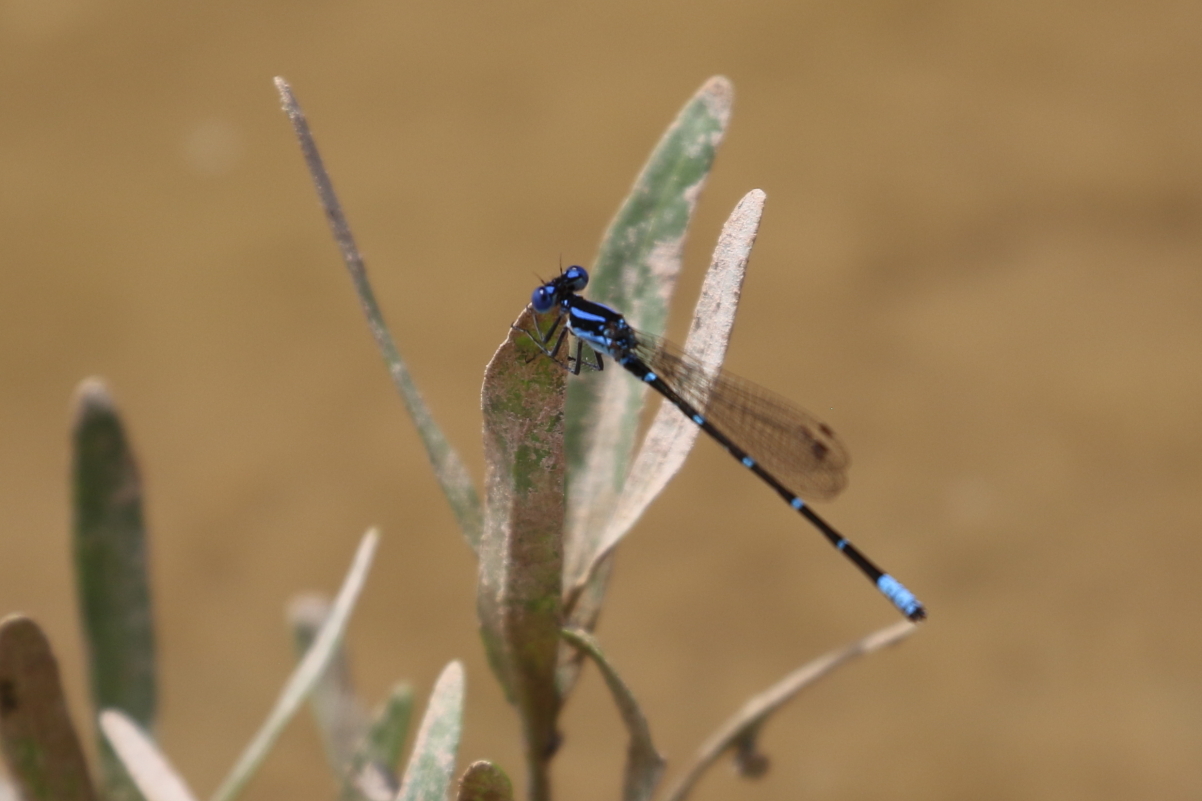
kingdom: Animalia
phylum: Arthropoda
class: Insecta
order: Odonata
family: Coenagrionidae
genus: Argia
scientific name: Argia sedula
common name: Blue-ringed dancer
